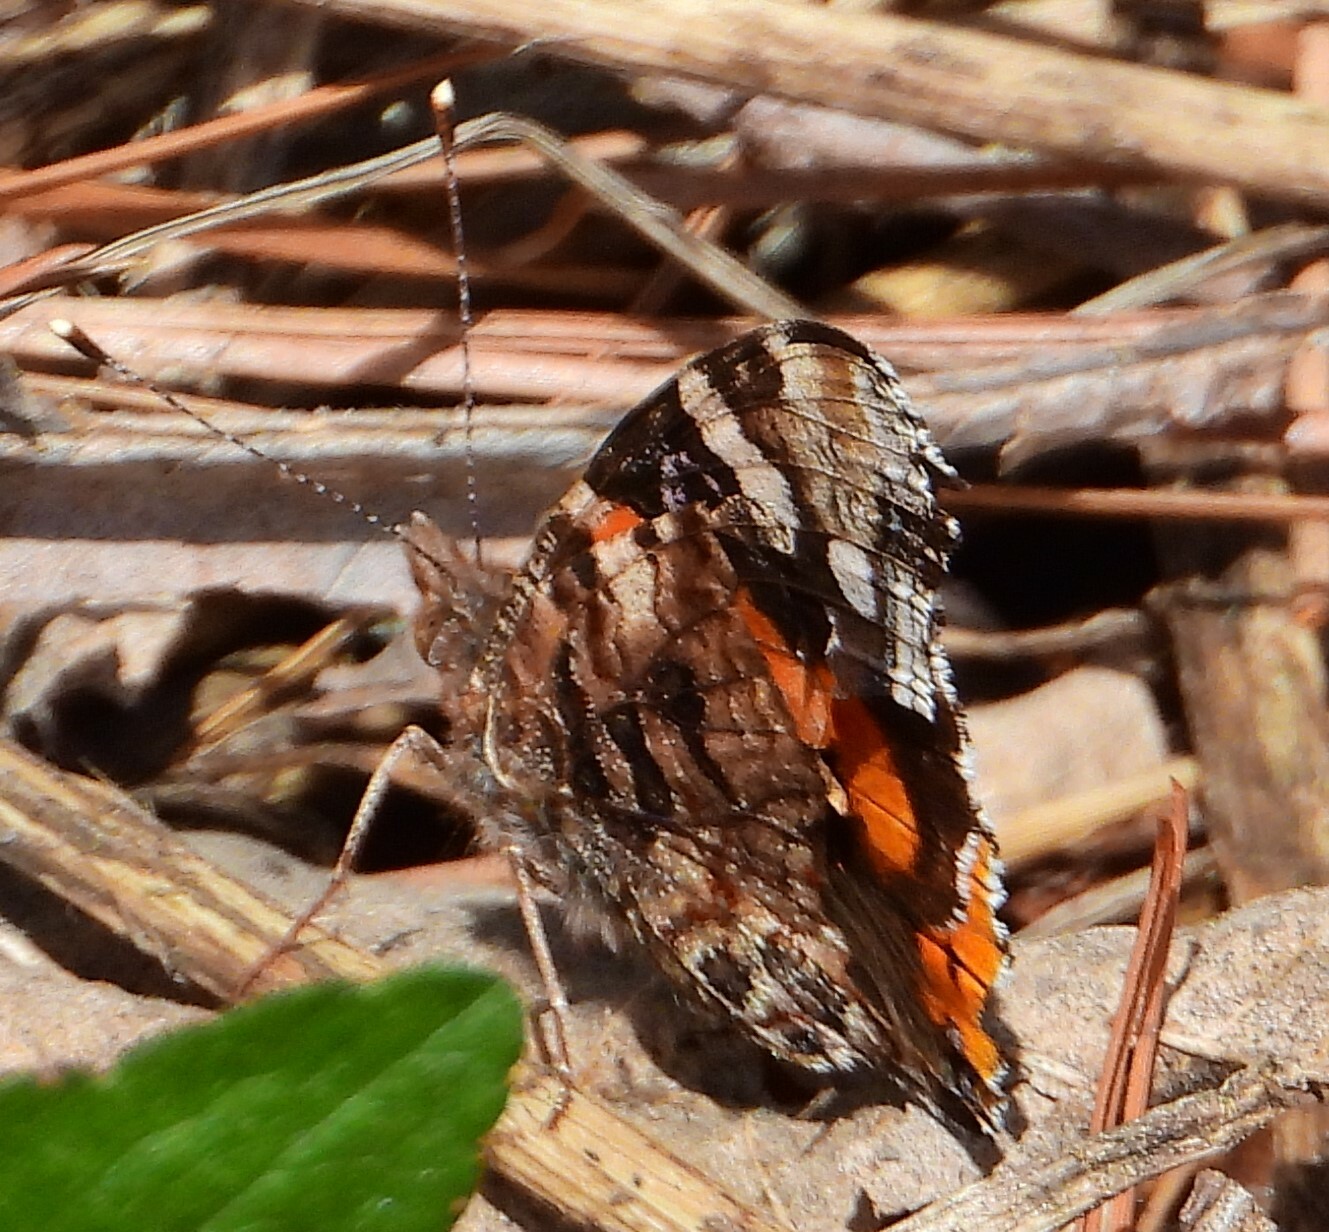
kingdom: Animalia
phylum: Arthropoda
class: Insecta
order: Lepidoptera
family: Nymphalidae
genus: Vanessa
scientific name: Vanessa atalanta
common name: Red admiral
